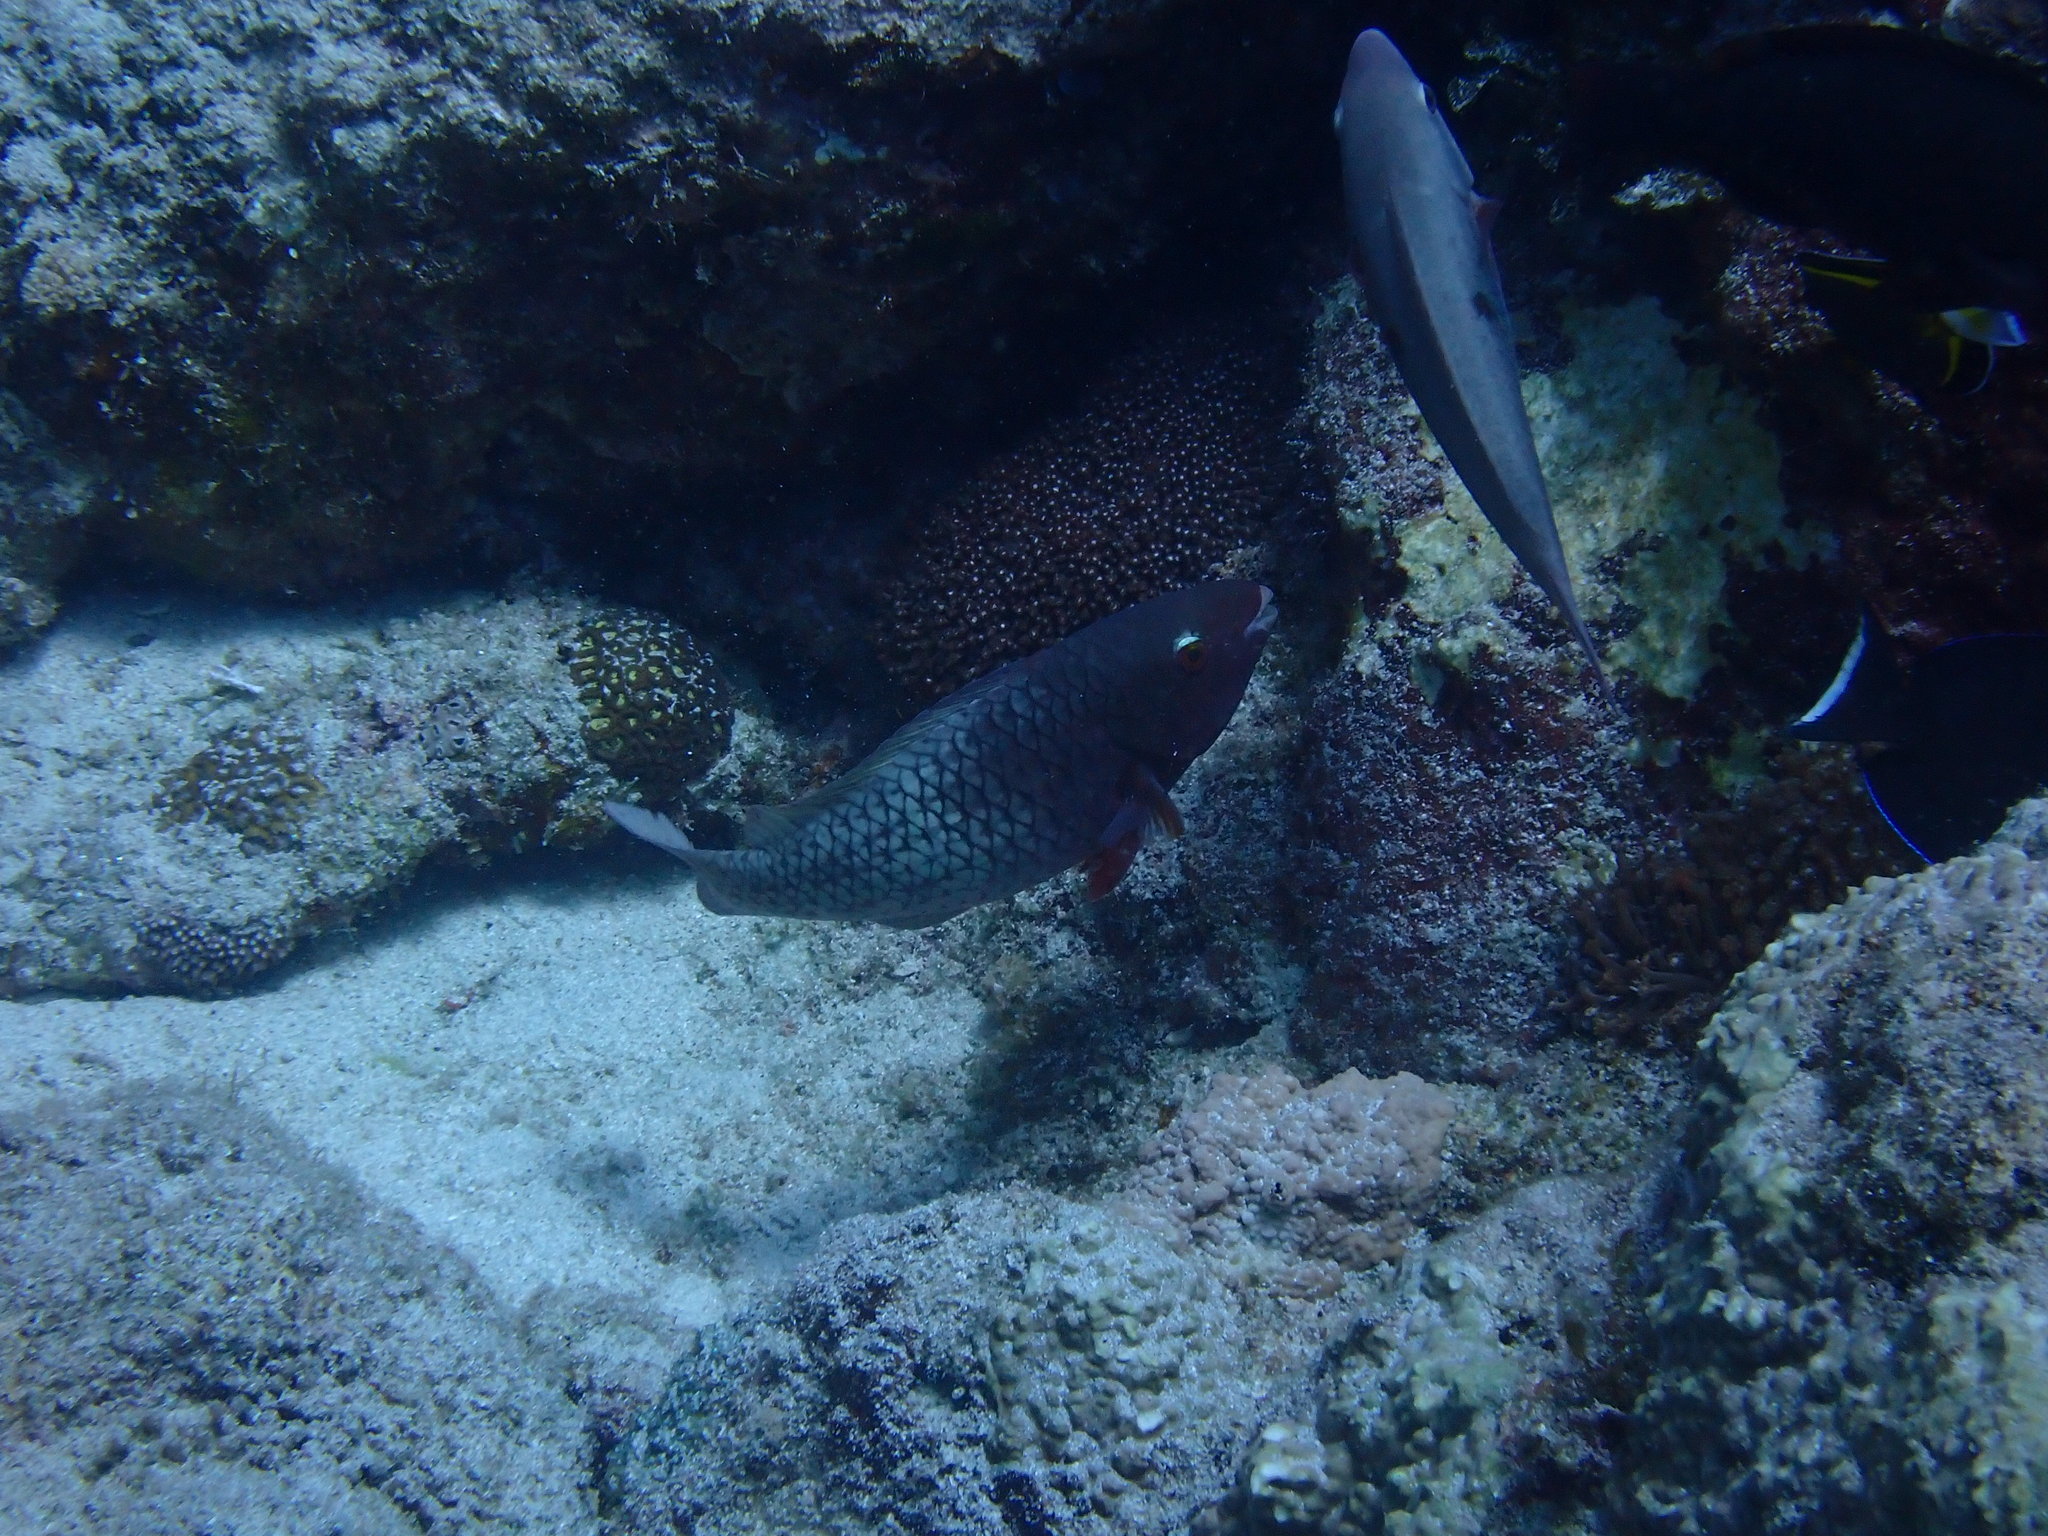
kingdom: Animalia
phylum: Chordata
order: Perciformes
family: Scaridae
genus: Scarus
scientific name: Scarus rubroviolaceus
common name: Ember parrotfish
